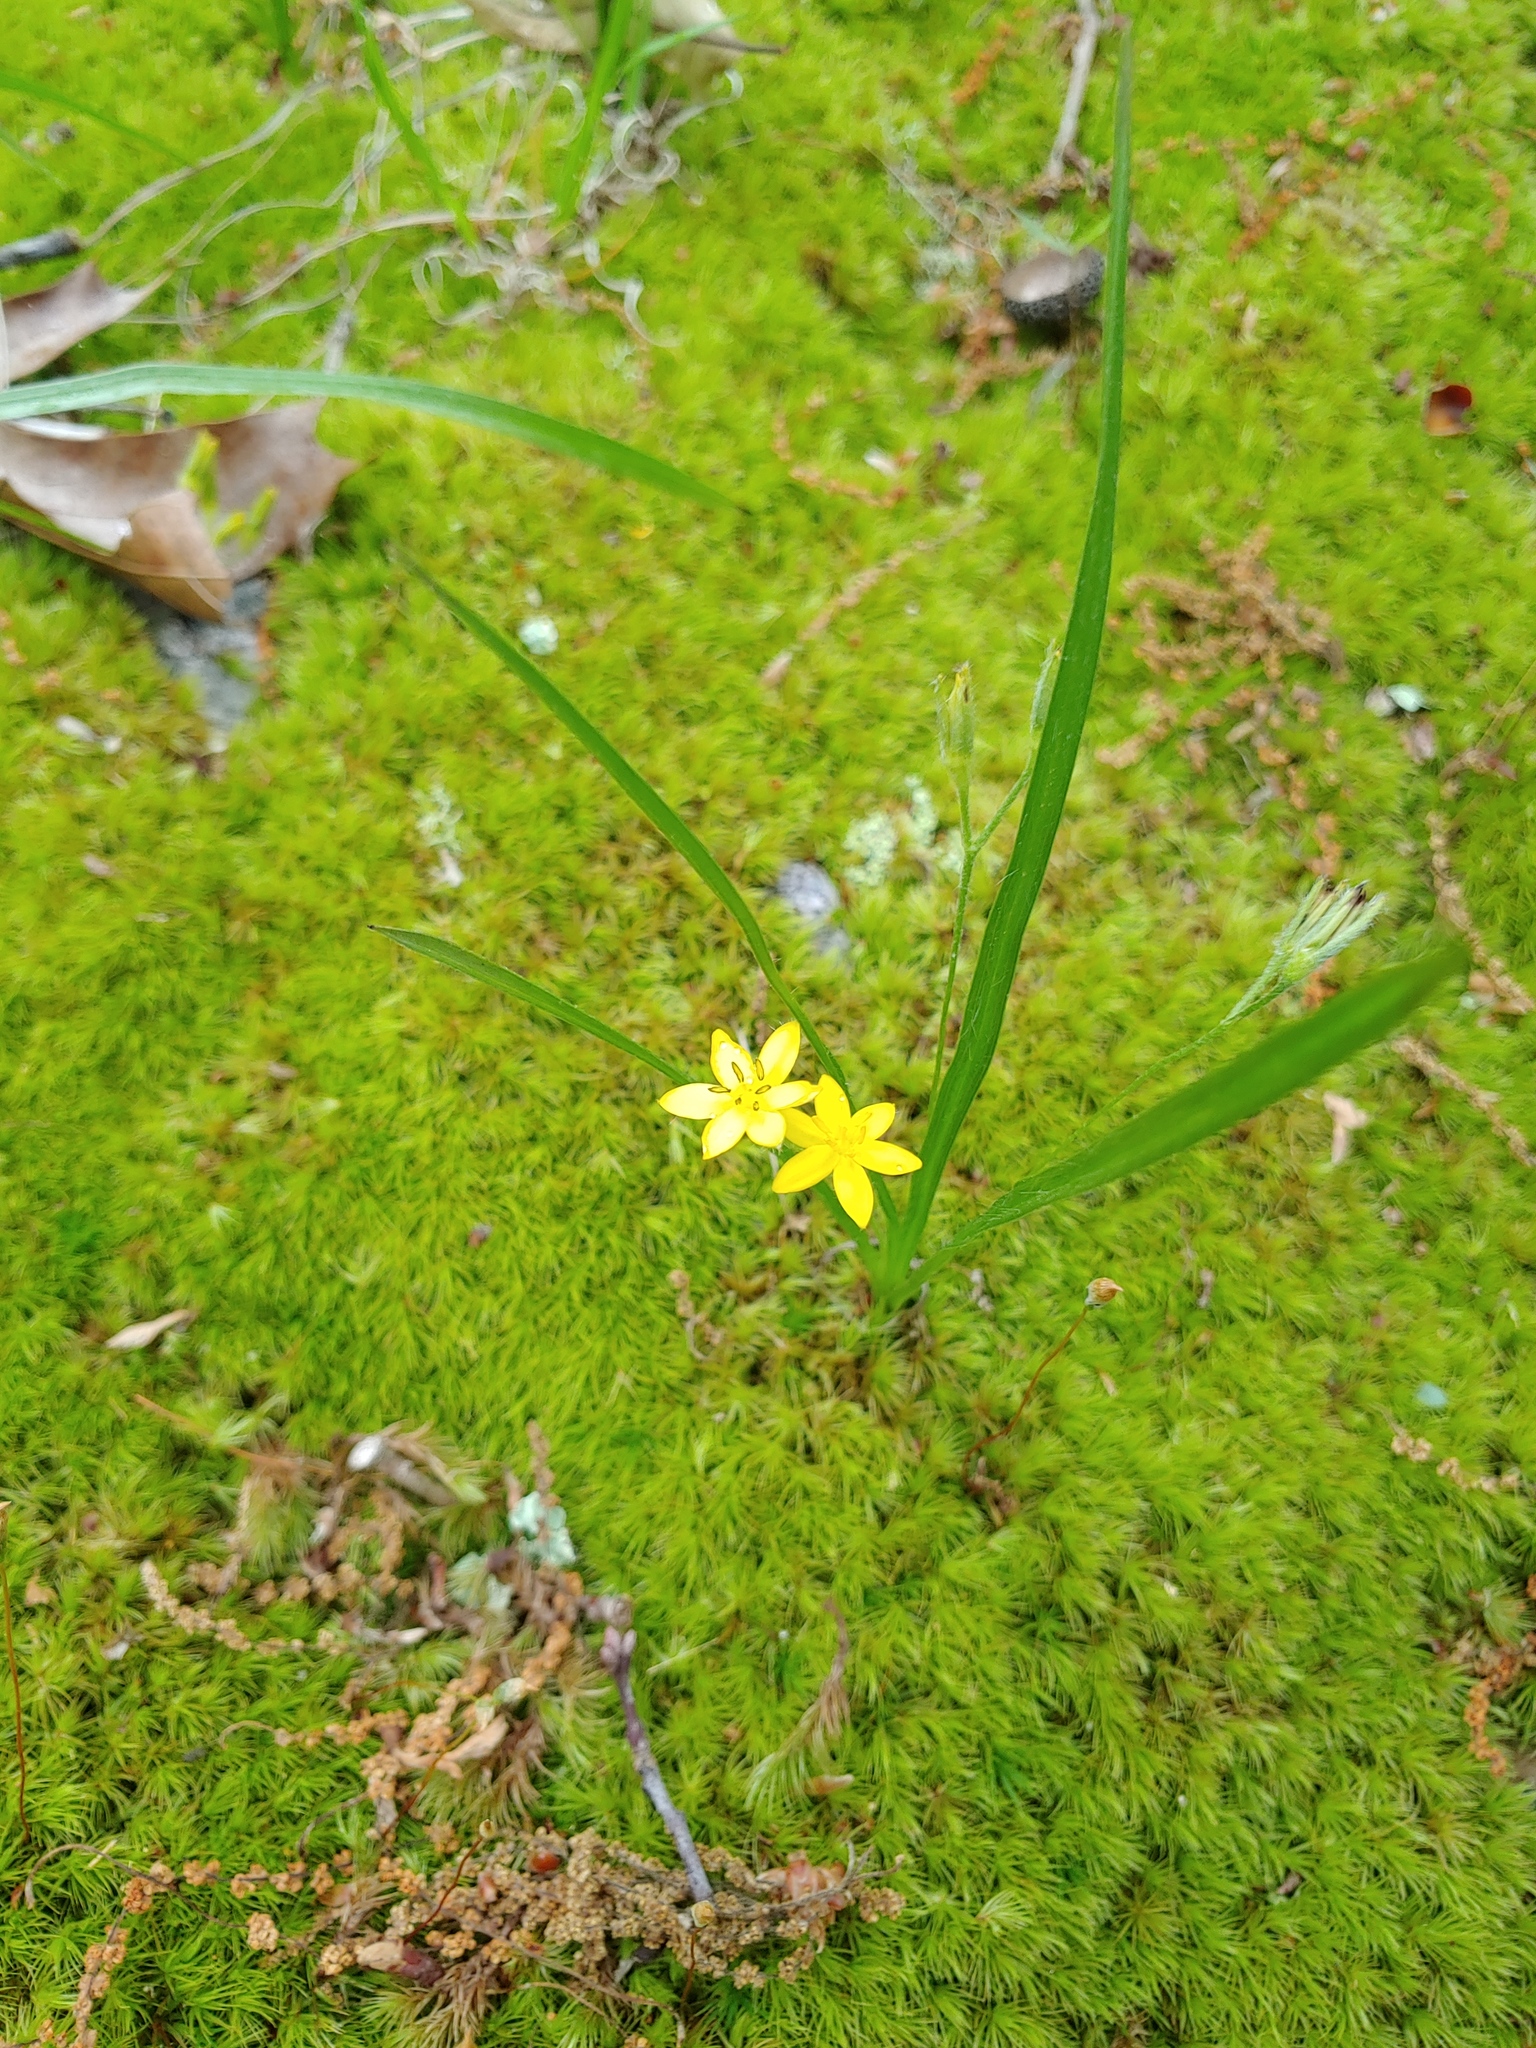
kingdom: Plantae
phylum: Tracheophyta
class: Liliopsida
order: Asparagales
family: Hypoxidaceae
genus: Hypoxis
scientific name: Hypoxis hirsuta
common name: Common goldstar
